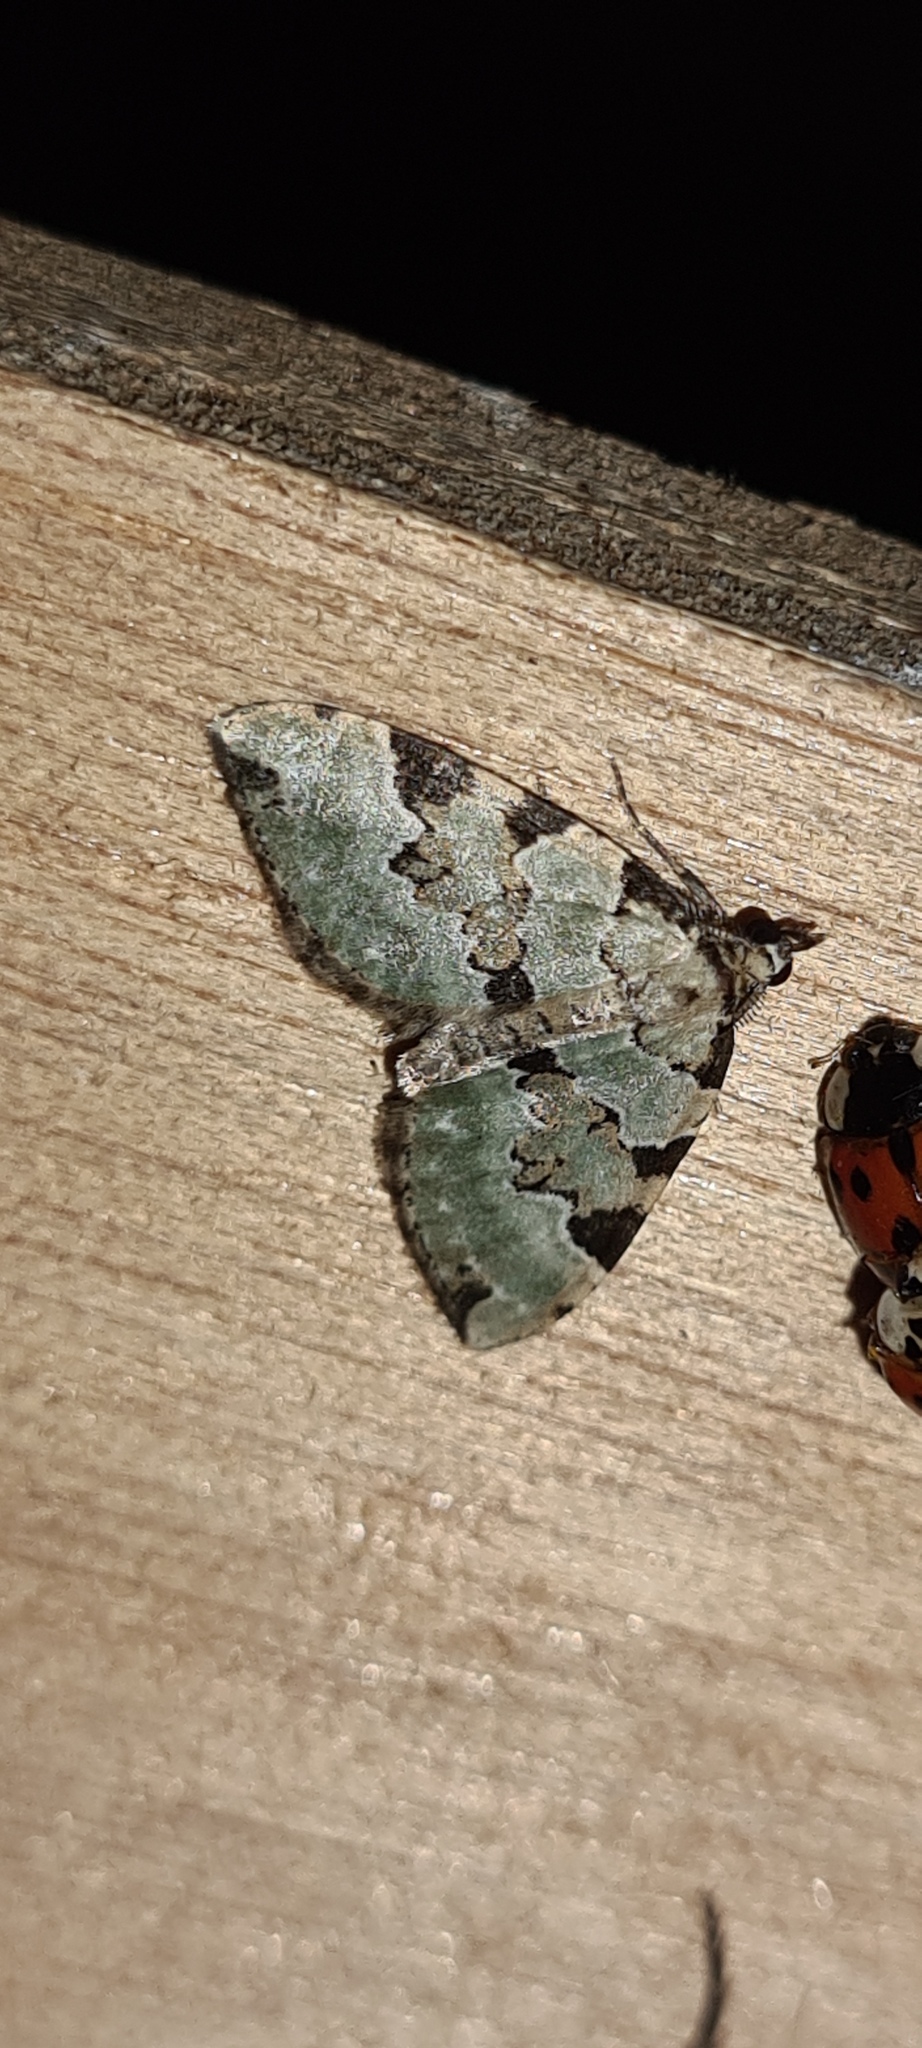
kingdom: Animalia
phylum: Arthropoda
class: Insecta
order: Lepidoptera
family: Geometridae
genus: Colostygia
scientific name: Colostygia pectinataria
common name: Green carpet
